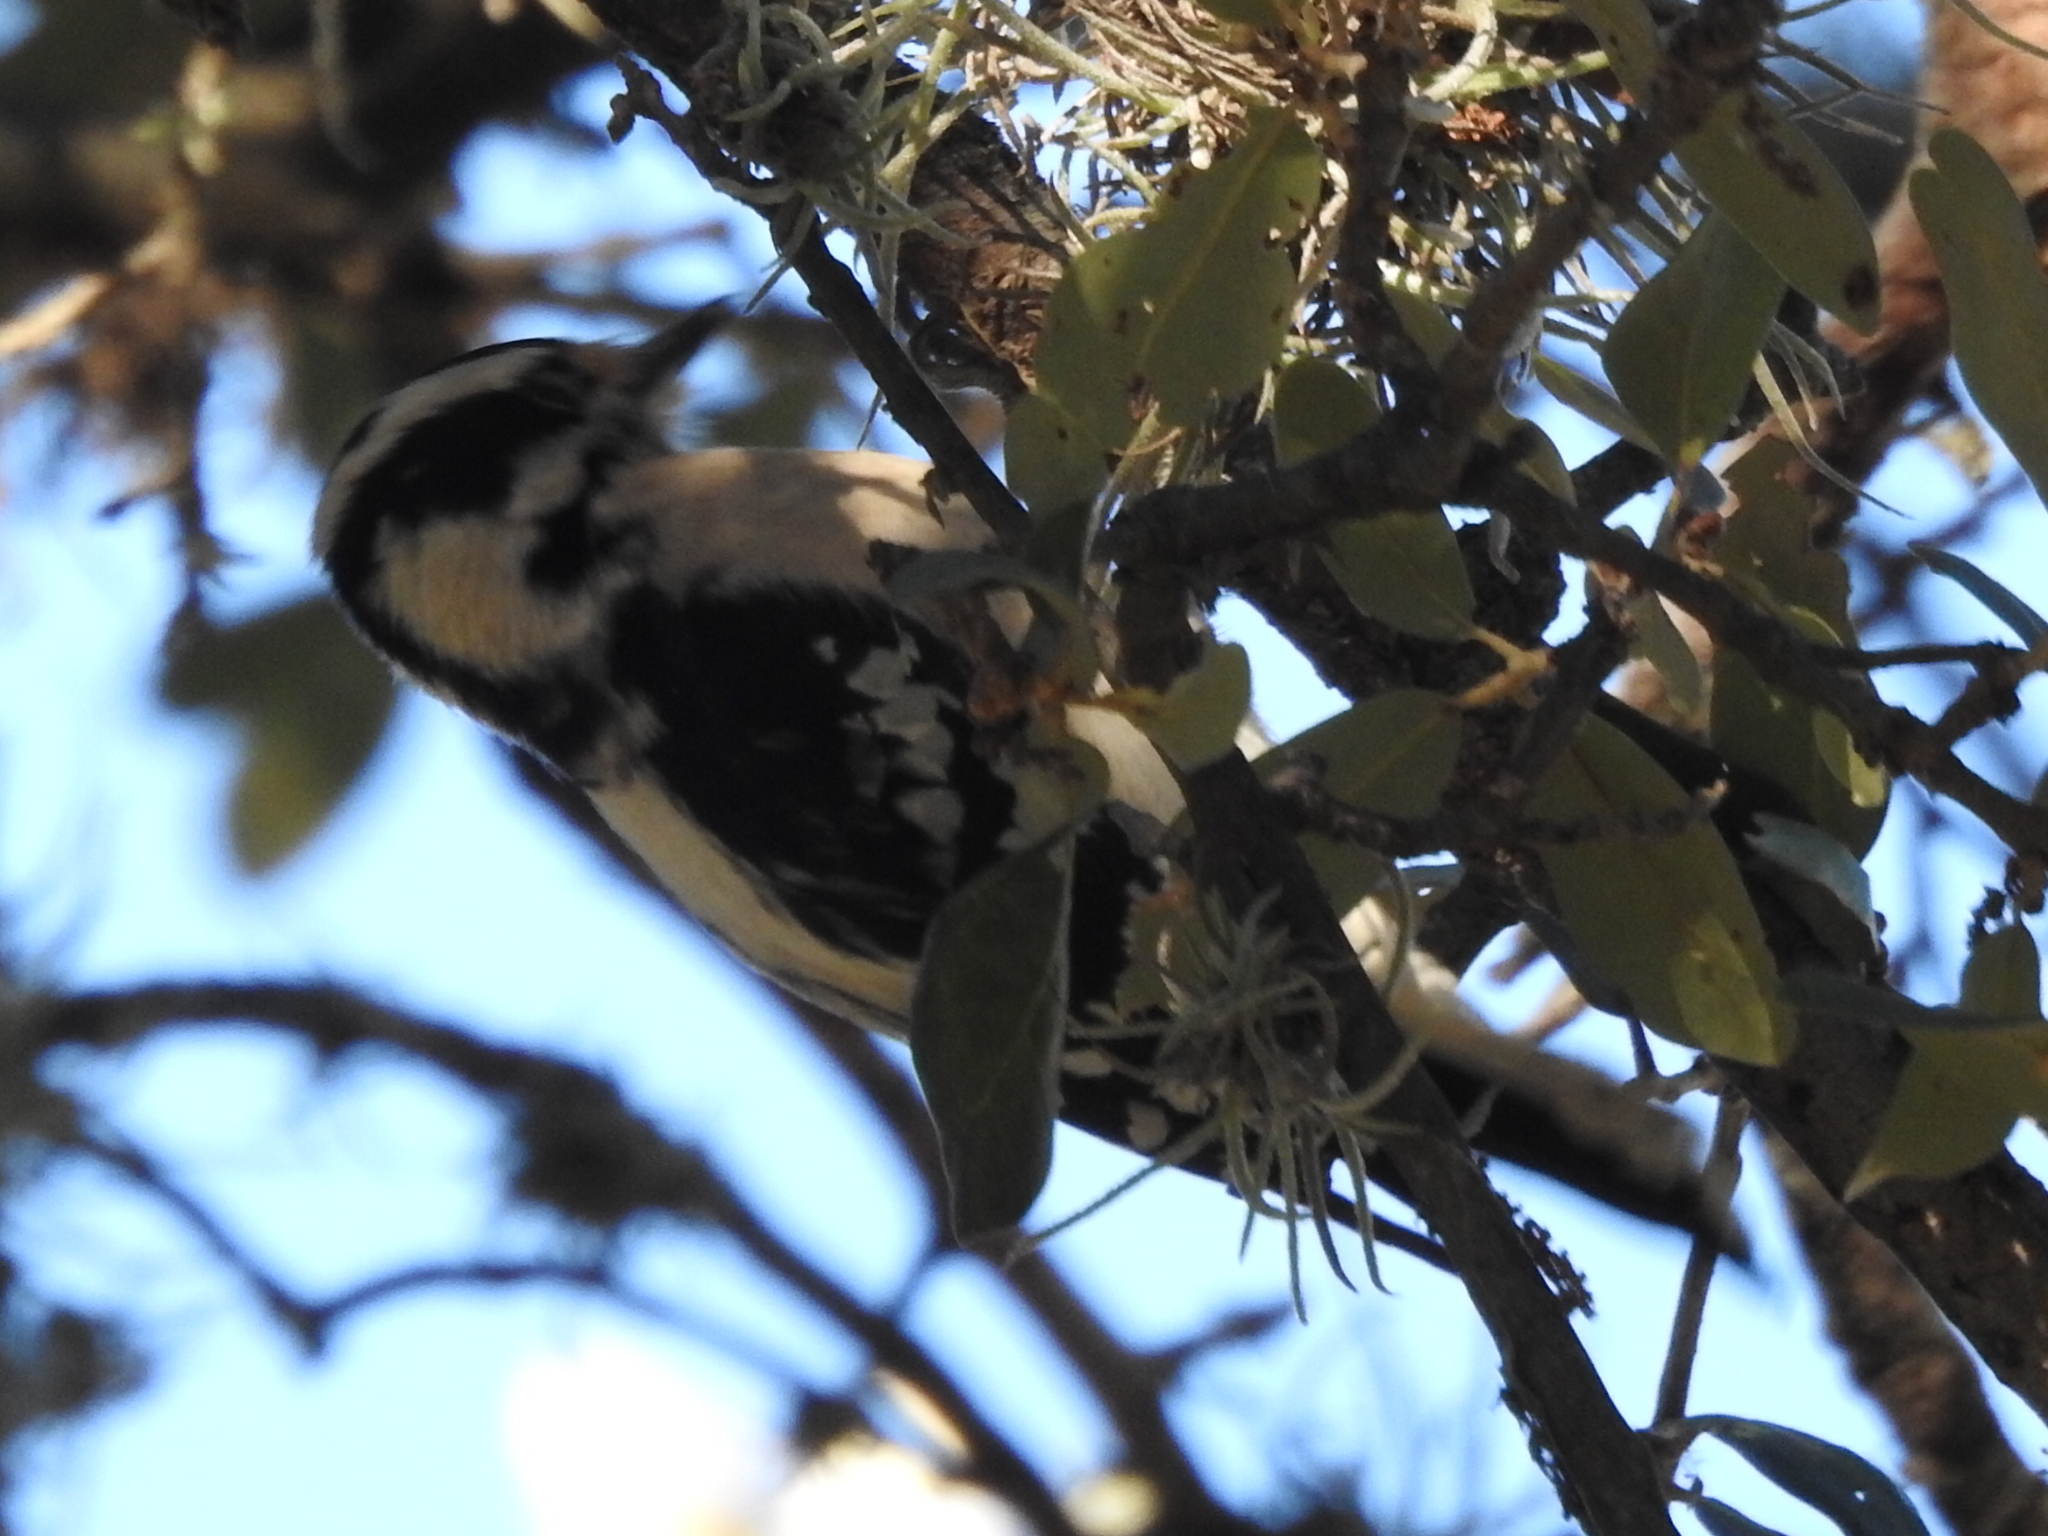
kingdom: Animalia
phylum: Chordata
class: Aves
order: Piciformes
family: Picidae
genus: Dryobates
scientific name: Dryobates pubescens
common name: Downy woodpecker
